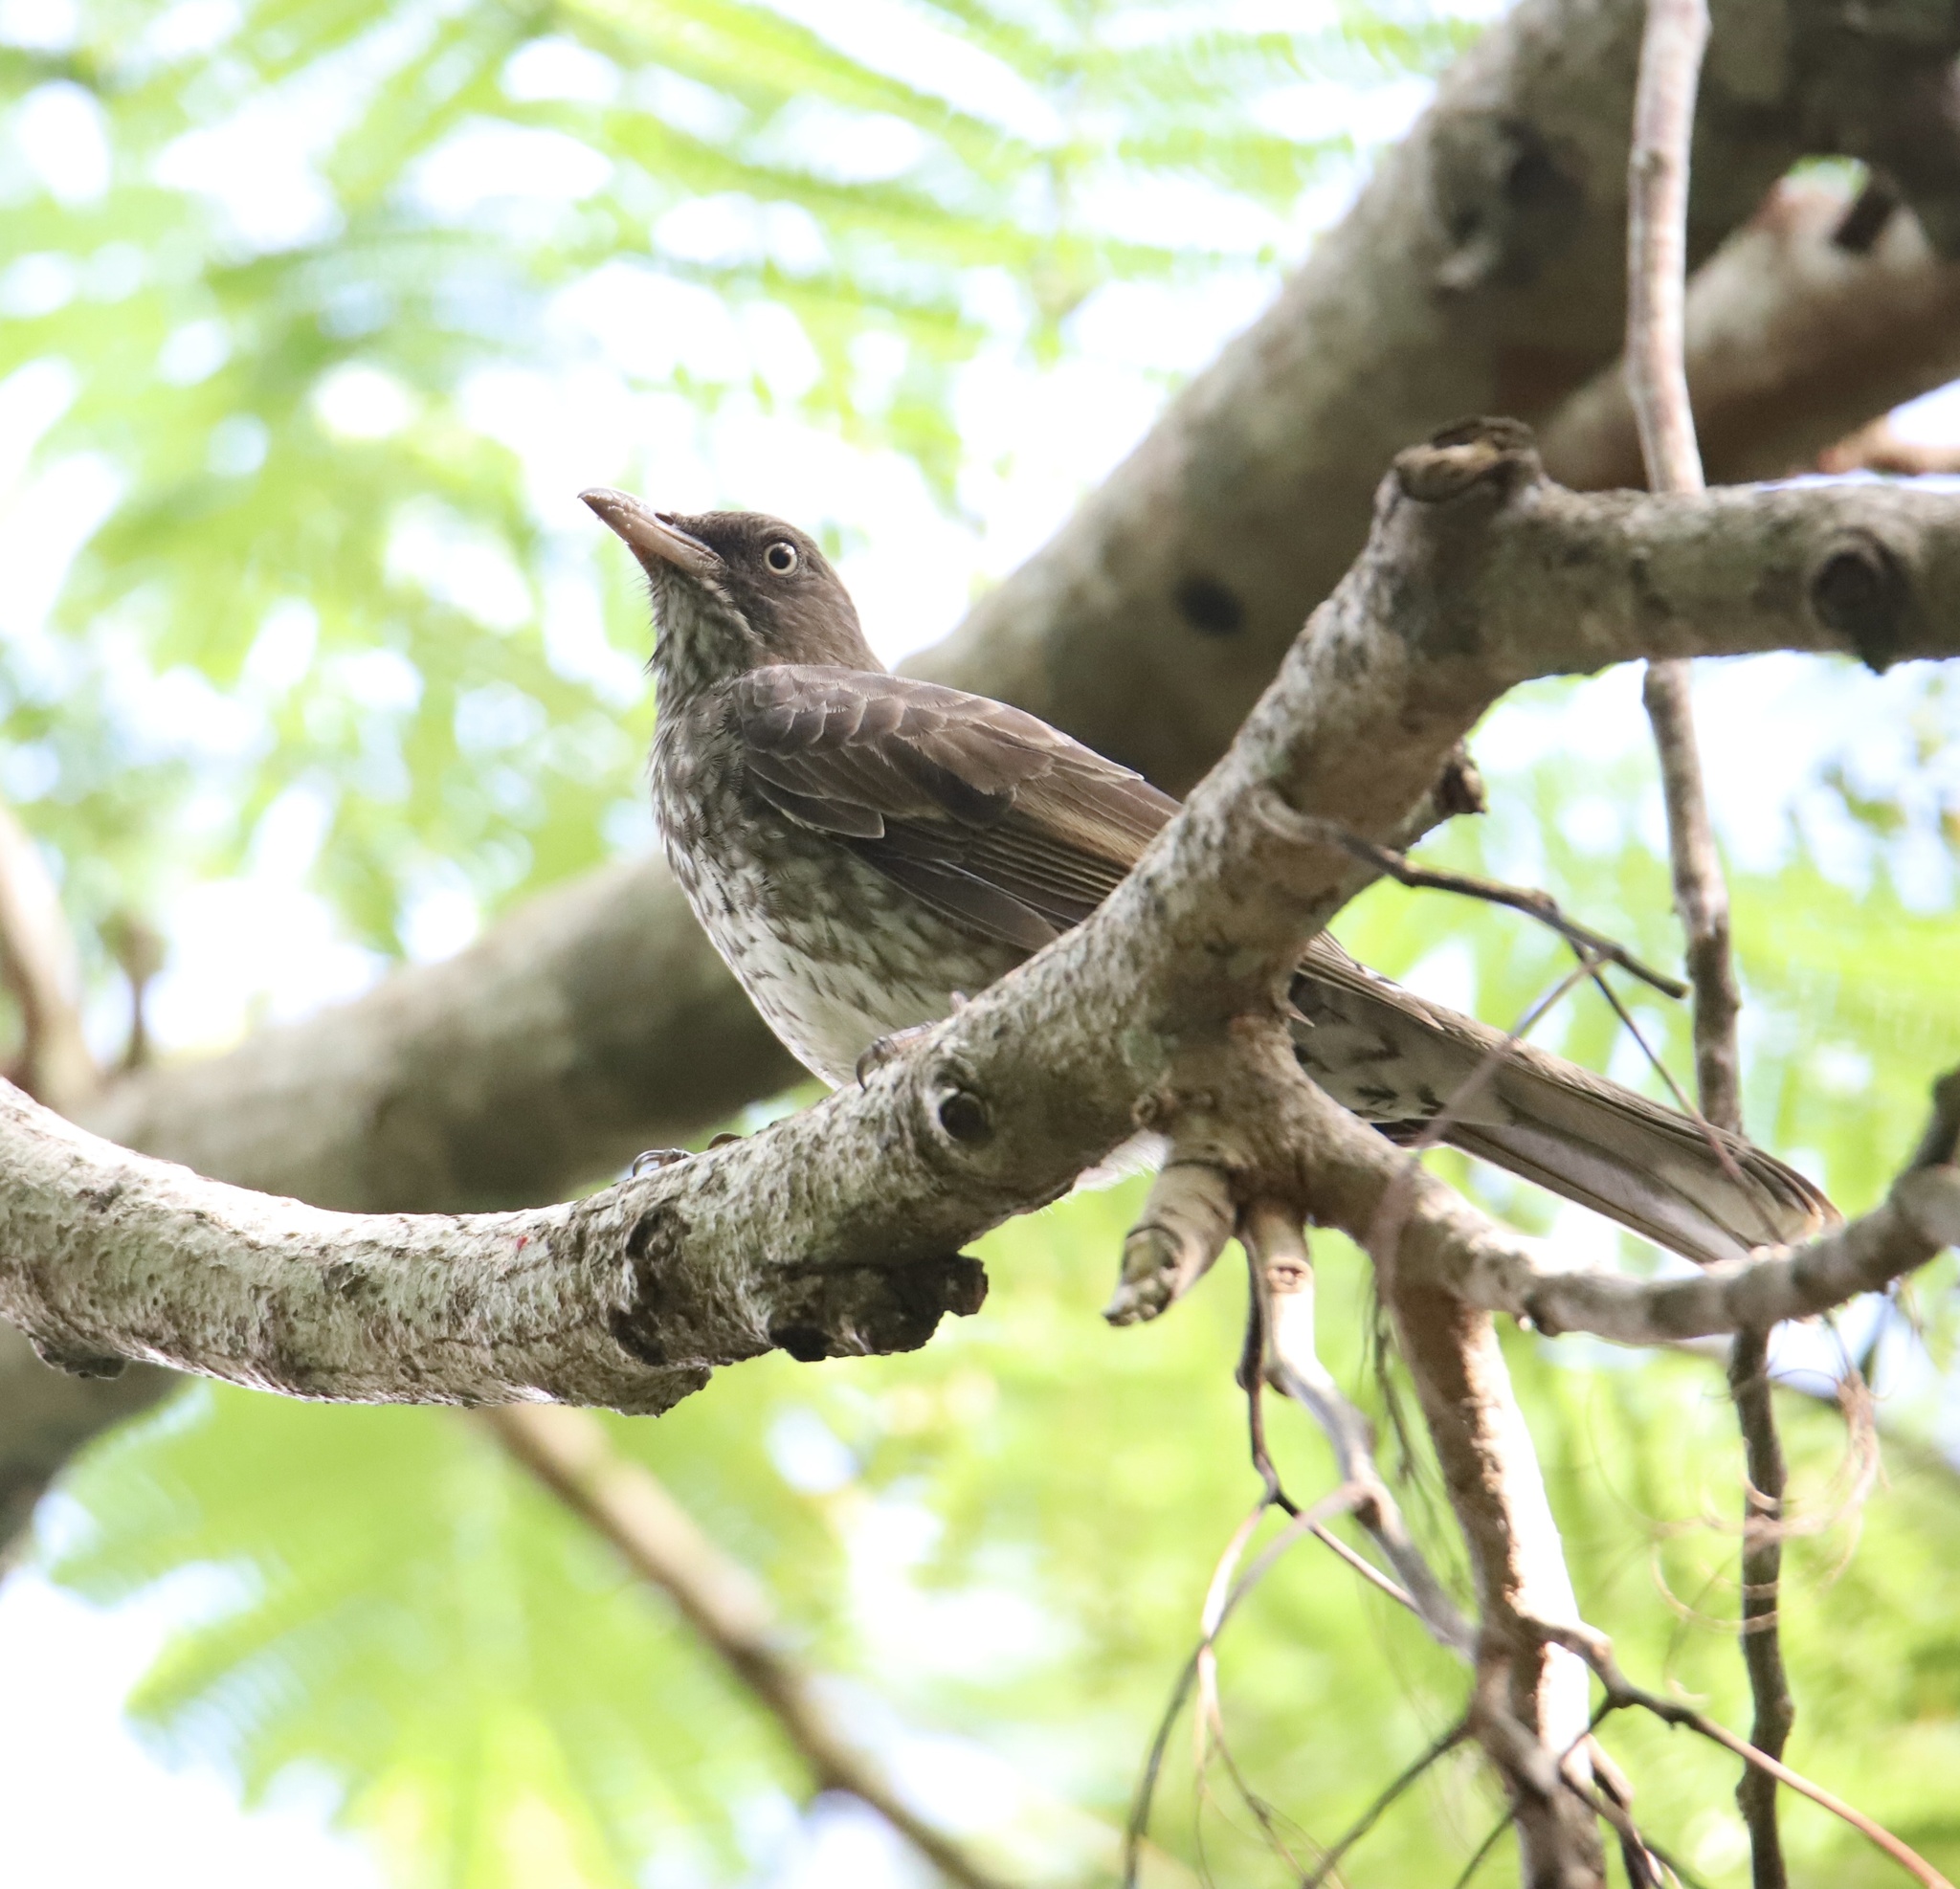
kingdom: Animalia
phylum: Chordata
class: Aves
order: Passeriformes
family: Mimidae
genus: Margarops
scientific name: Margarops fuscatus
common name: Pearly-eyed thrasher
